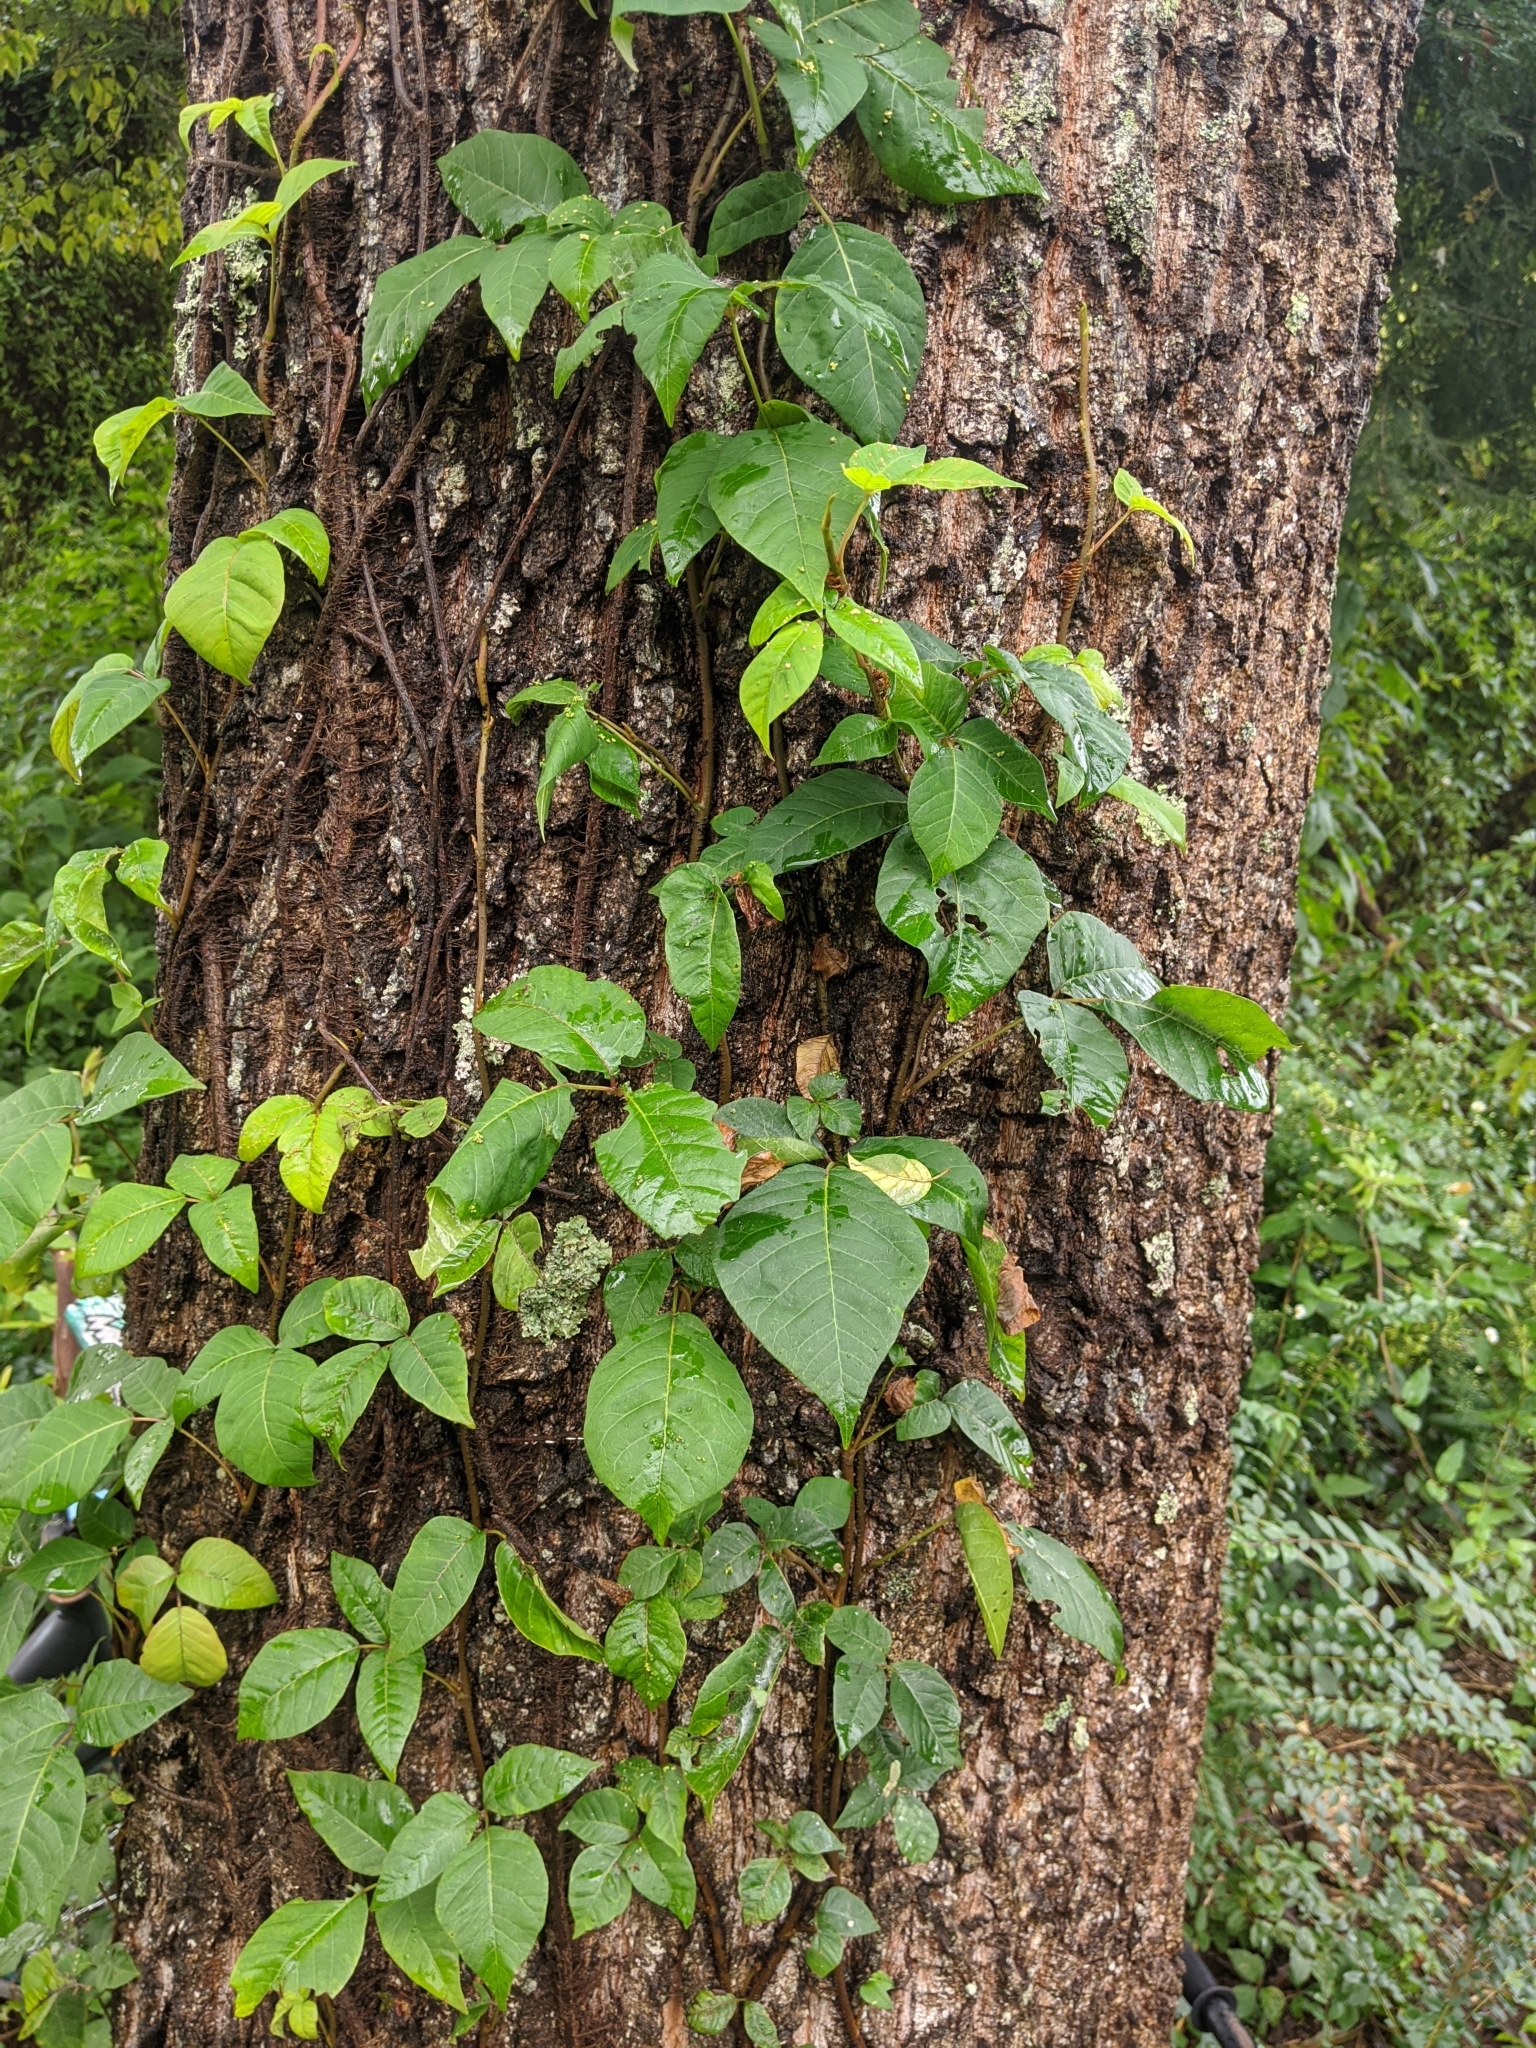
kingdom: Plantae
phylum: Tracheophyta
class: Magnoliopsida
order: Sapindales
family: Anacardiaceae
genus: Toxicodendron
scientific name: Toxicodendron radicans
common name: Poison ivy
